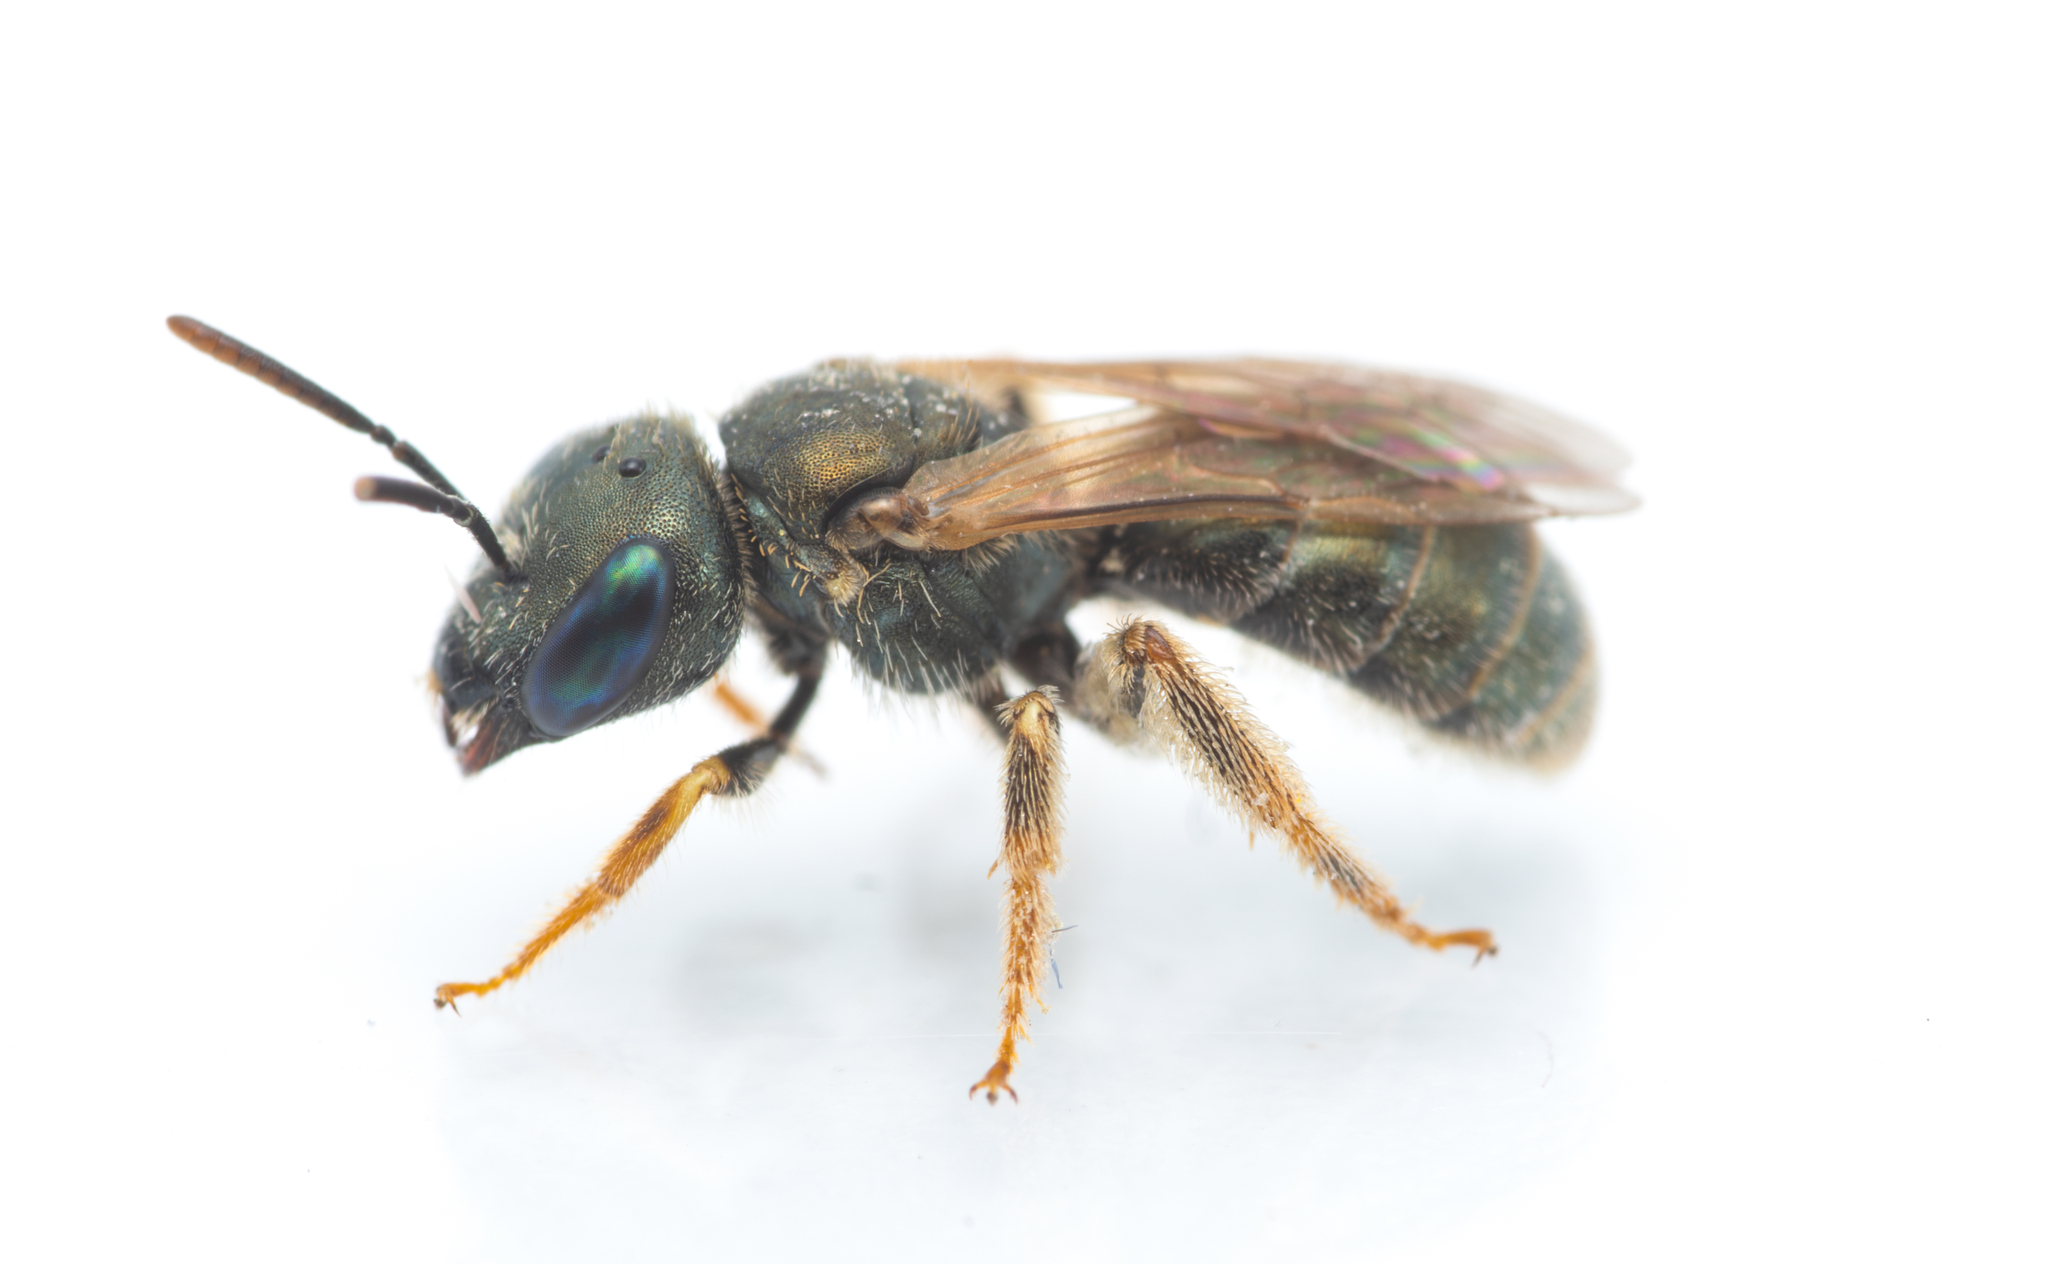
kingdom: Animalia
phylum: Arthropoda
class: Insecta
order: Hymenoptera
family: Halictidae
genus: Halictus
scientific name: Halictus gemmeus
